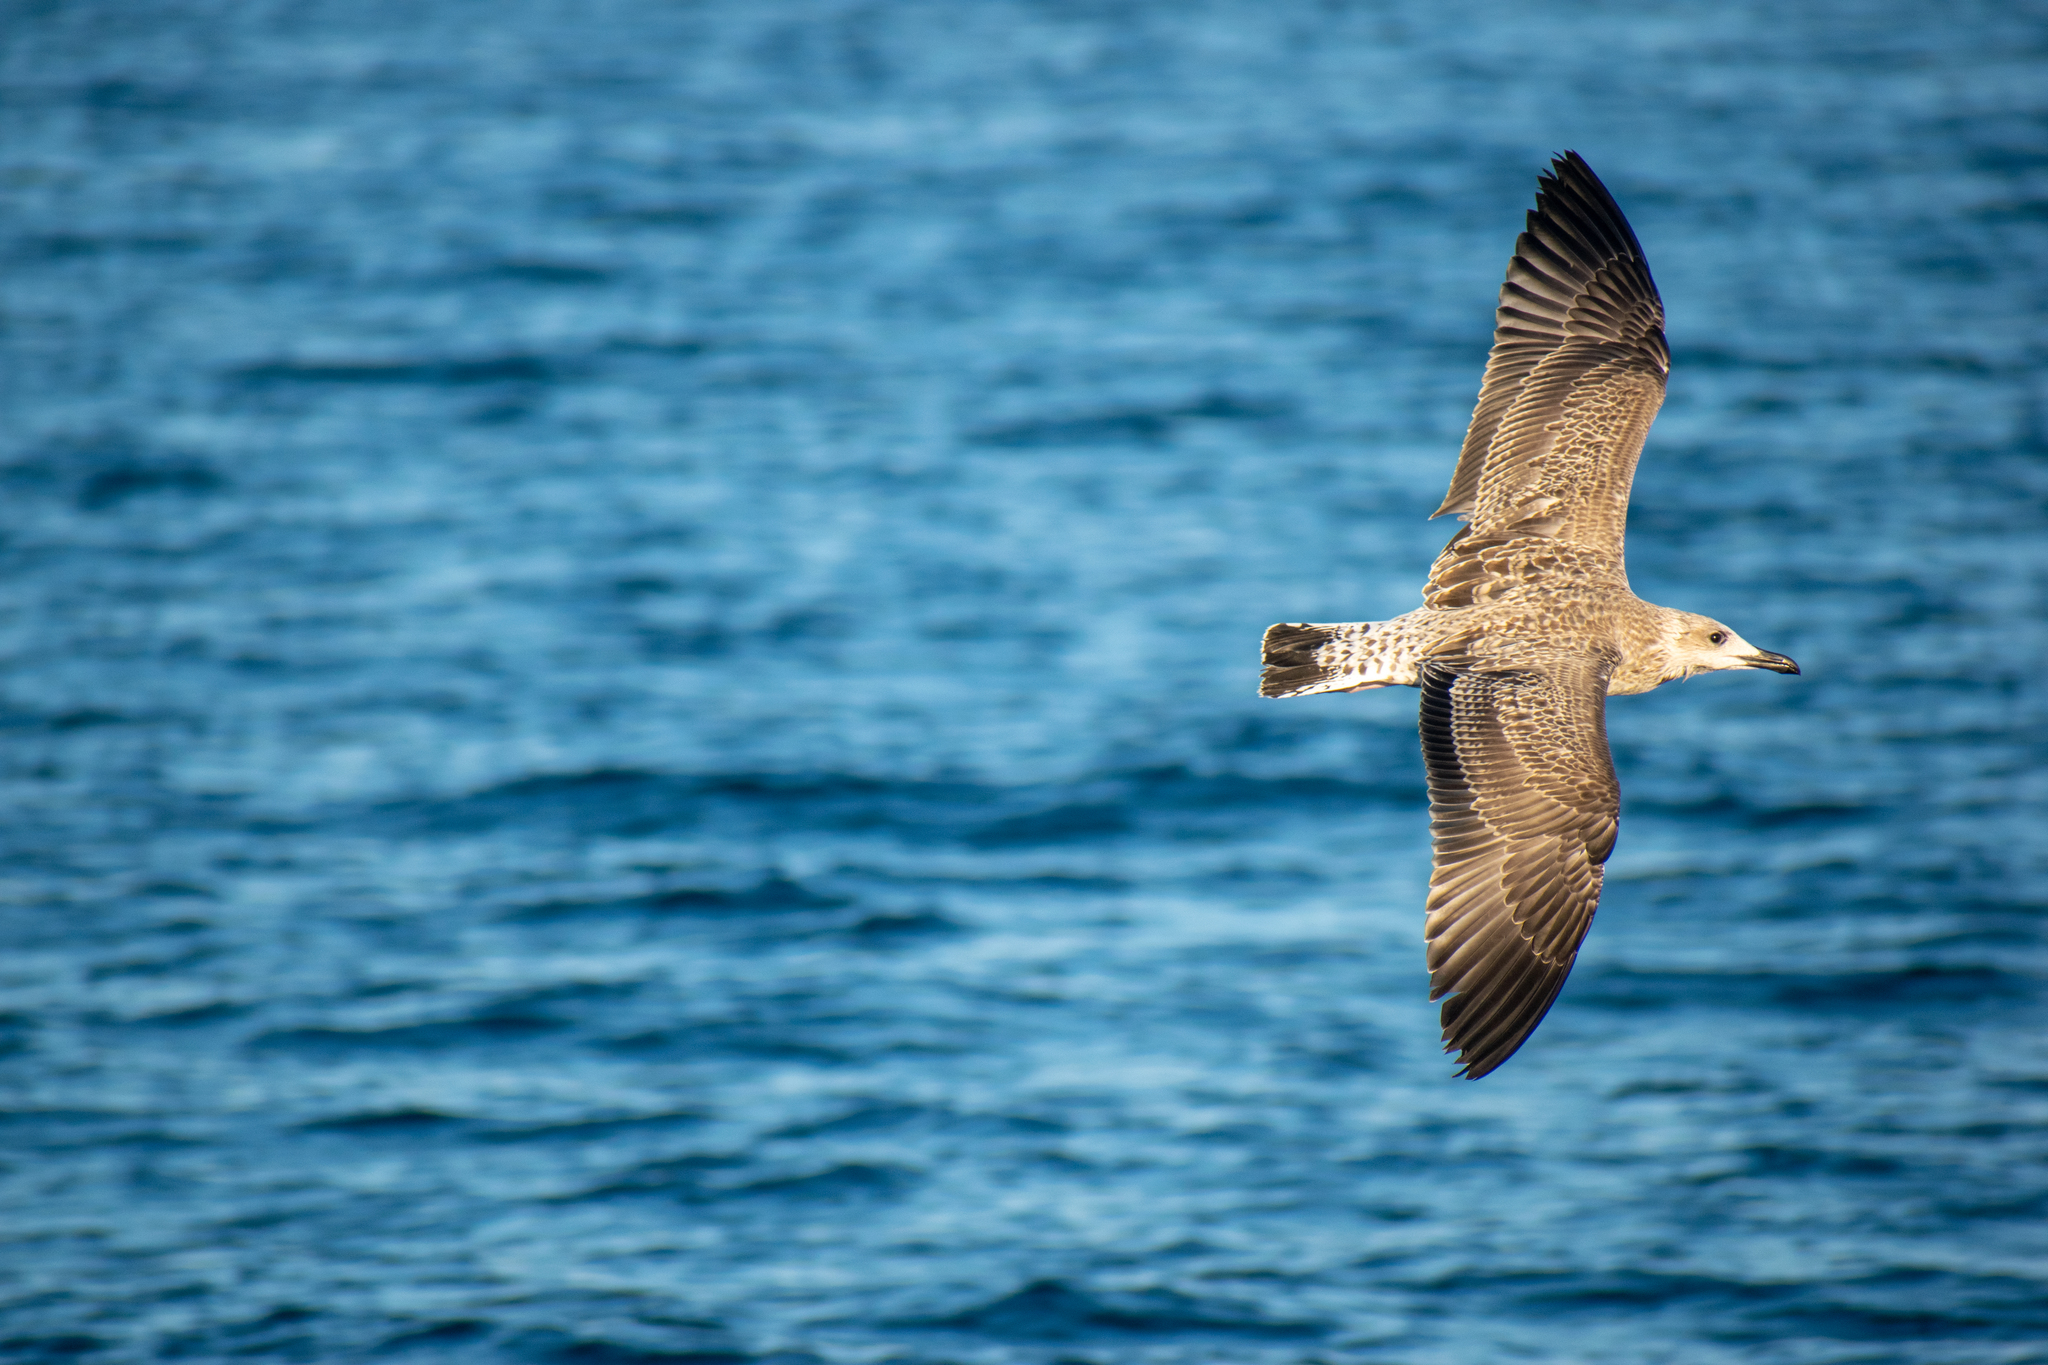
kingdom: Animalia
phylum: Chordata
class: Aves
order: Charadriiformes
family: Laridae
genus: Larus
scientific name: Larus michahellis
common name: Yellow-legged gull
